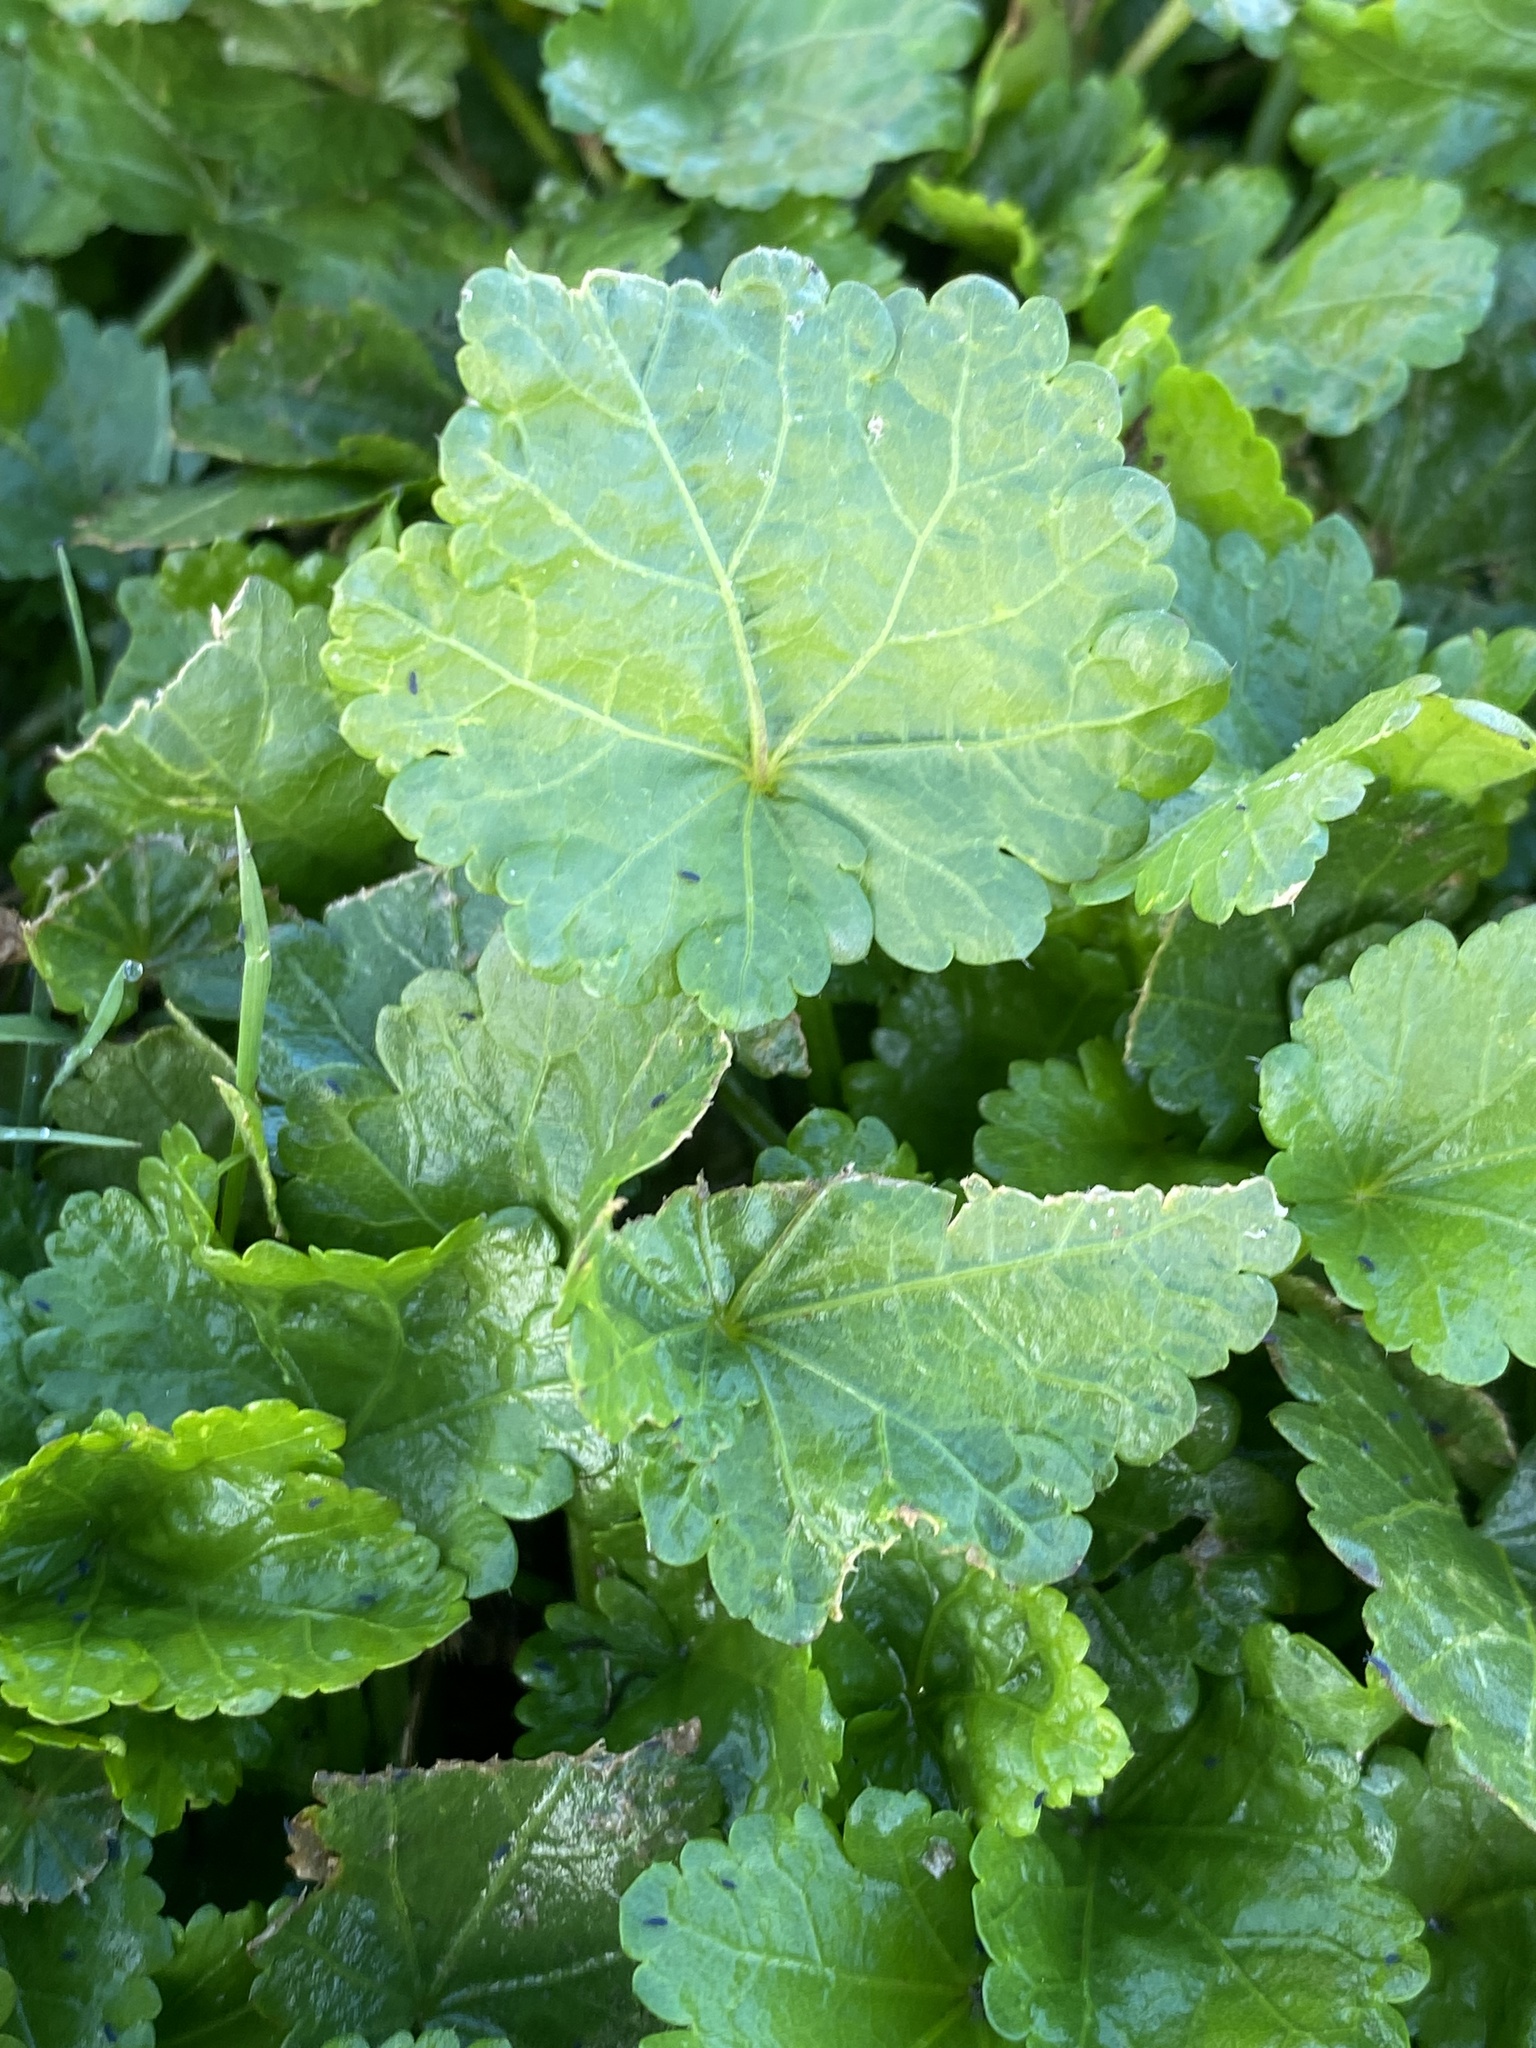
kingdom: Plantae
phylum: Tracheophyta
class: Magnoliopsida
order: Malvales
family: Malvaceae
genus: Modiola
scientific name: Modiola caroliniana
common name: Carolina bristlemallow
